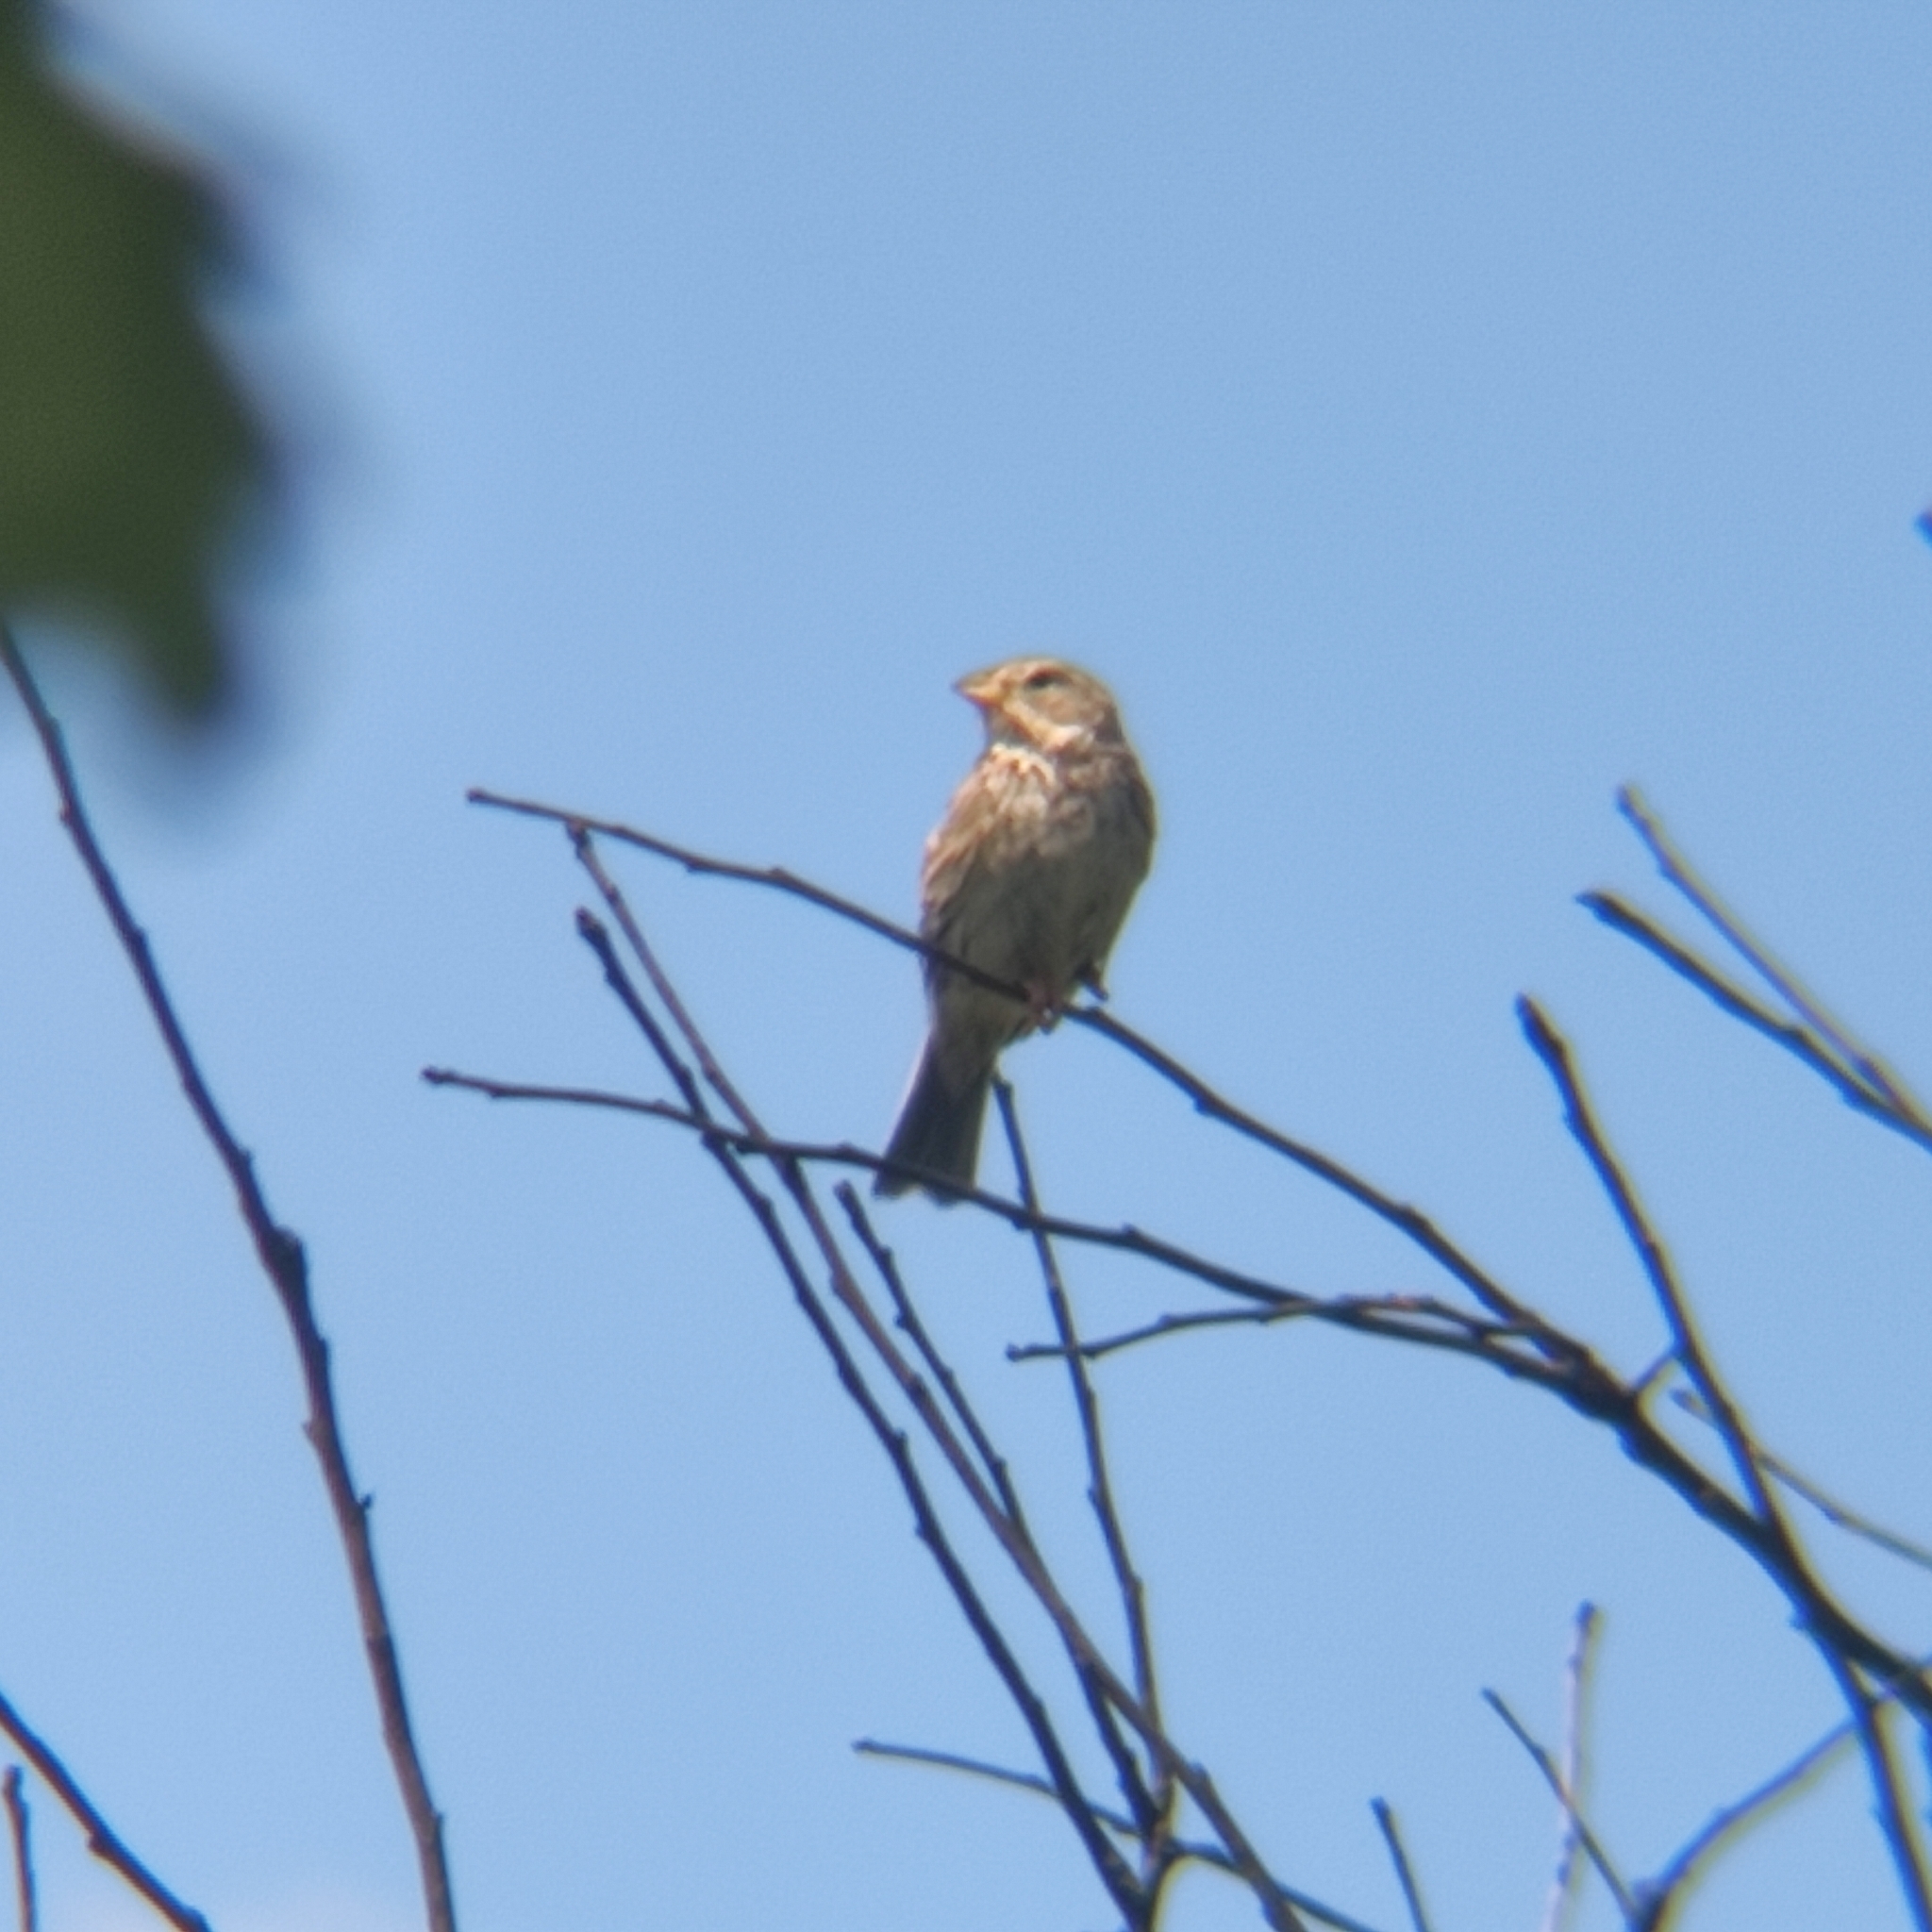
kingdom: Animalia
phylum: Chordata
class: Aves
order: Passeriformes
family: Emberizidae
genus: Emberiza
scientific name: Emberiza calandra
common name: Corn bunting
